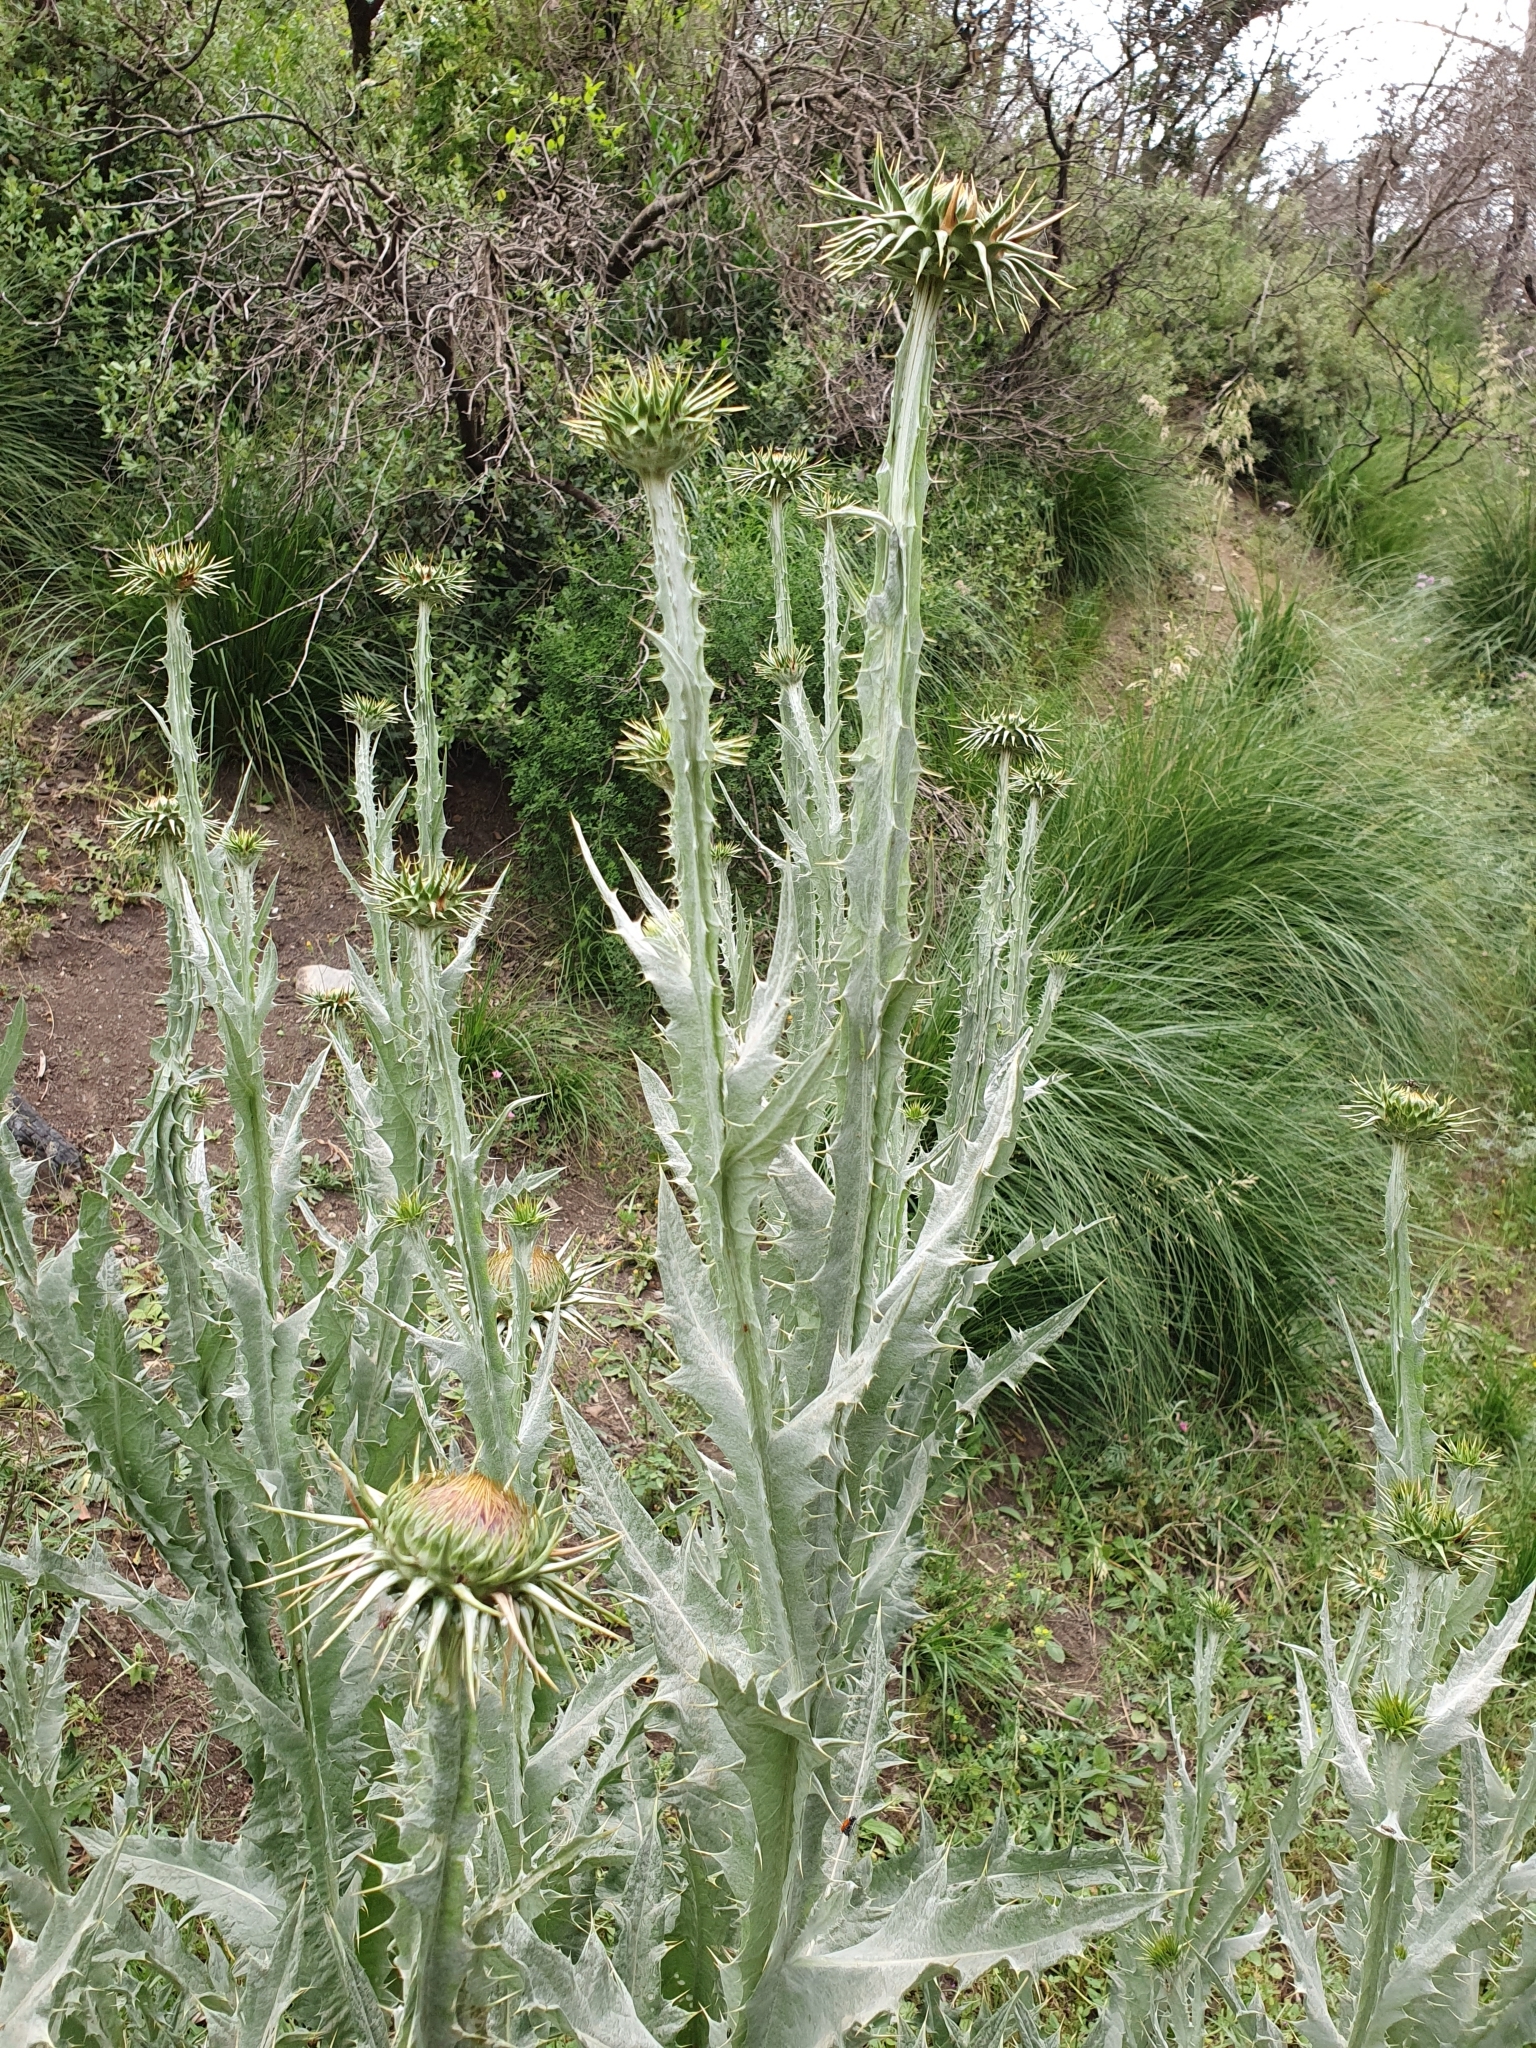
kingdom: Plantae
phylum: Tracheophyta
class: Magnoliopsida
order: Asterales
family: Asteraceae
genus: Onopordum
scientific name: Onopordum macracanthum
